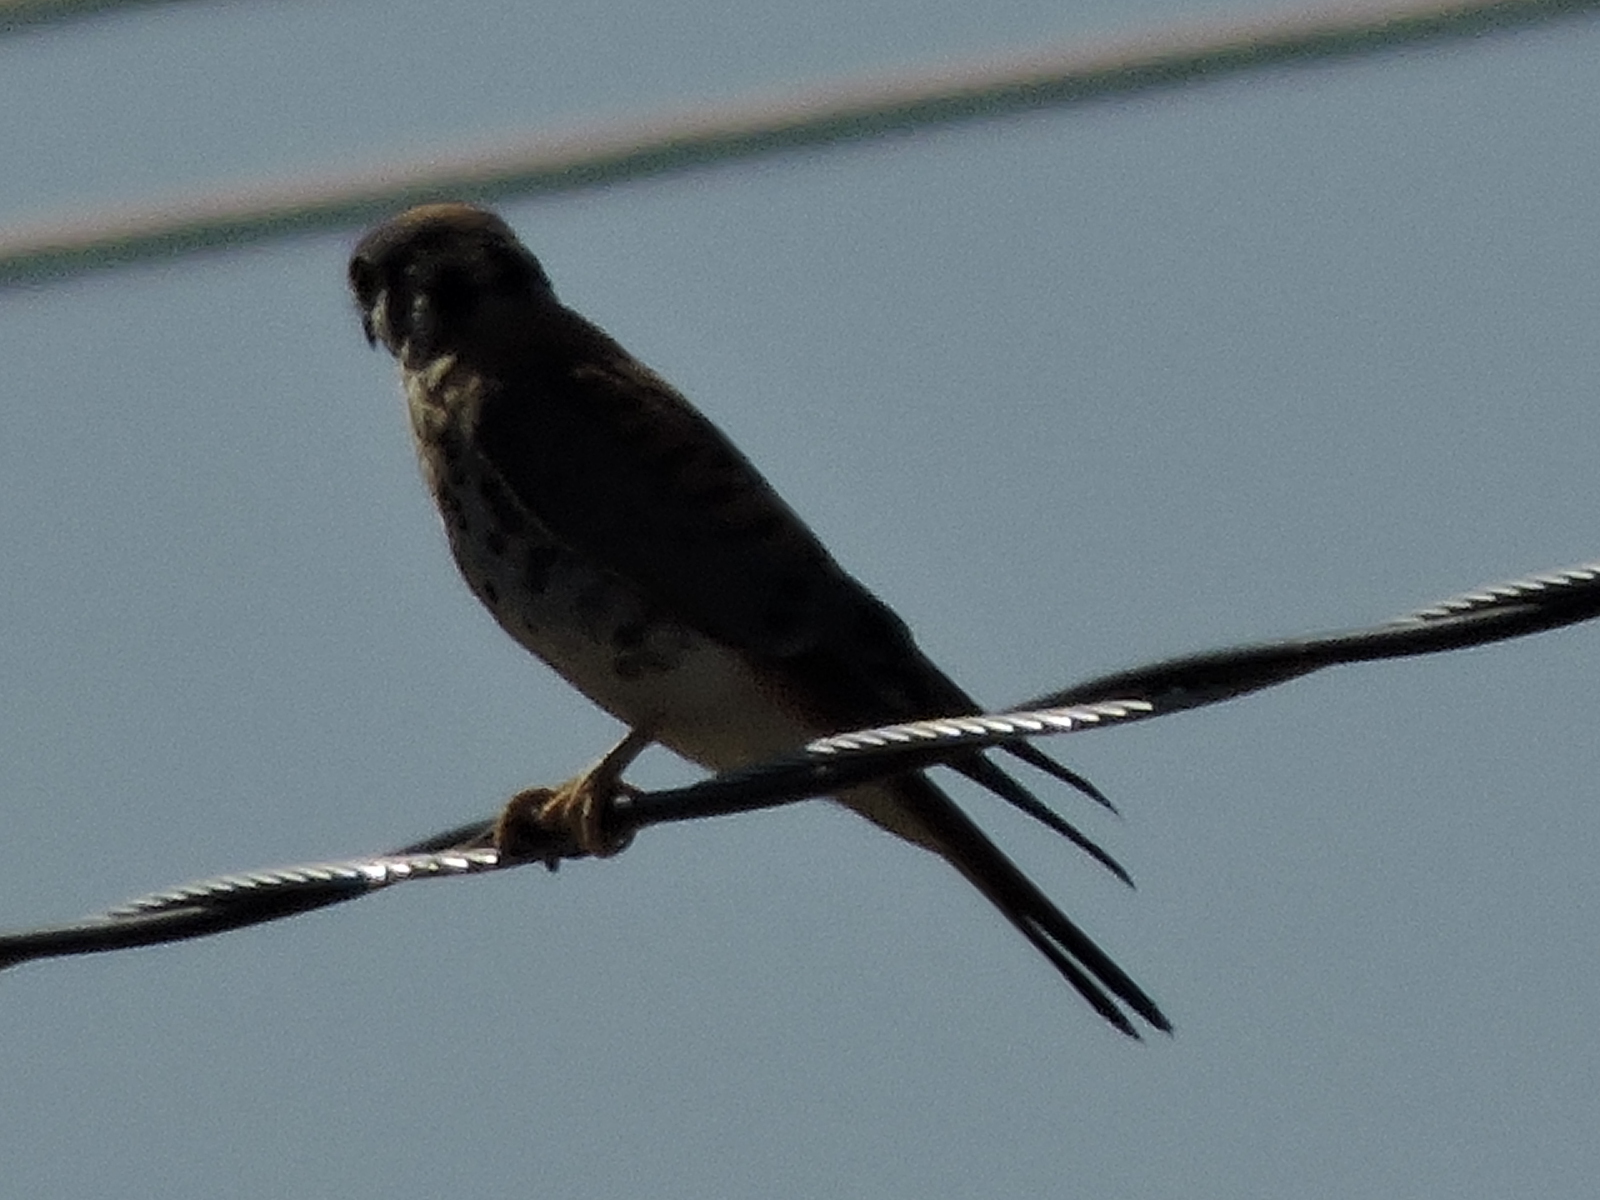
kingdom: Animalia
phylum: Chordata
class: Aves
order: Falconiformes
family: Falconidae
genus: Falco
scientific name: Falco sparverius
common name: American kestrel
